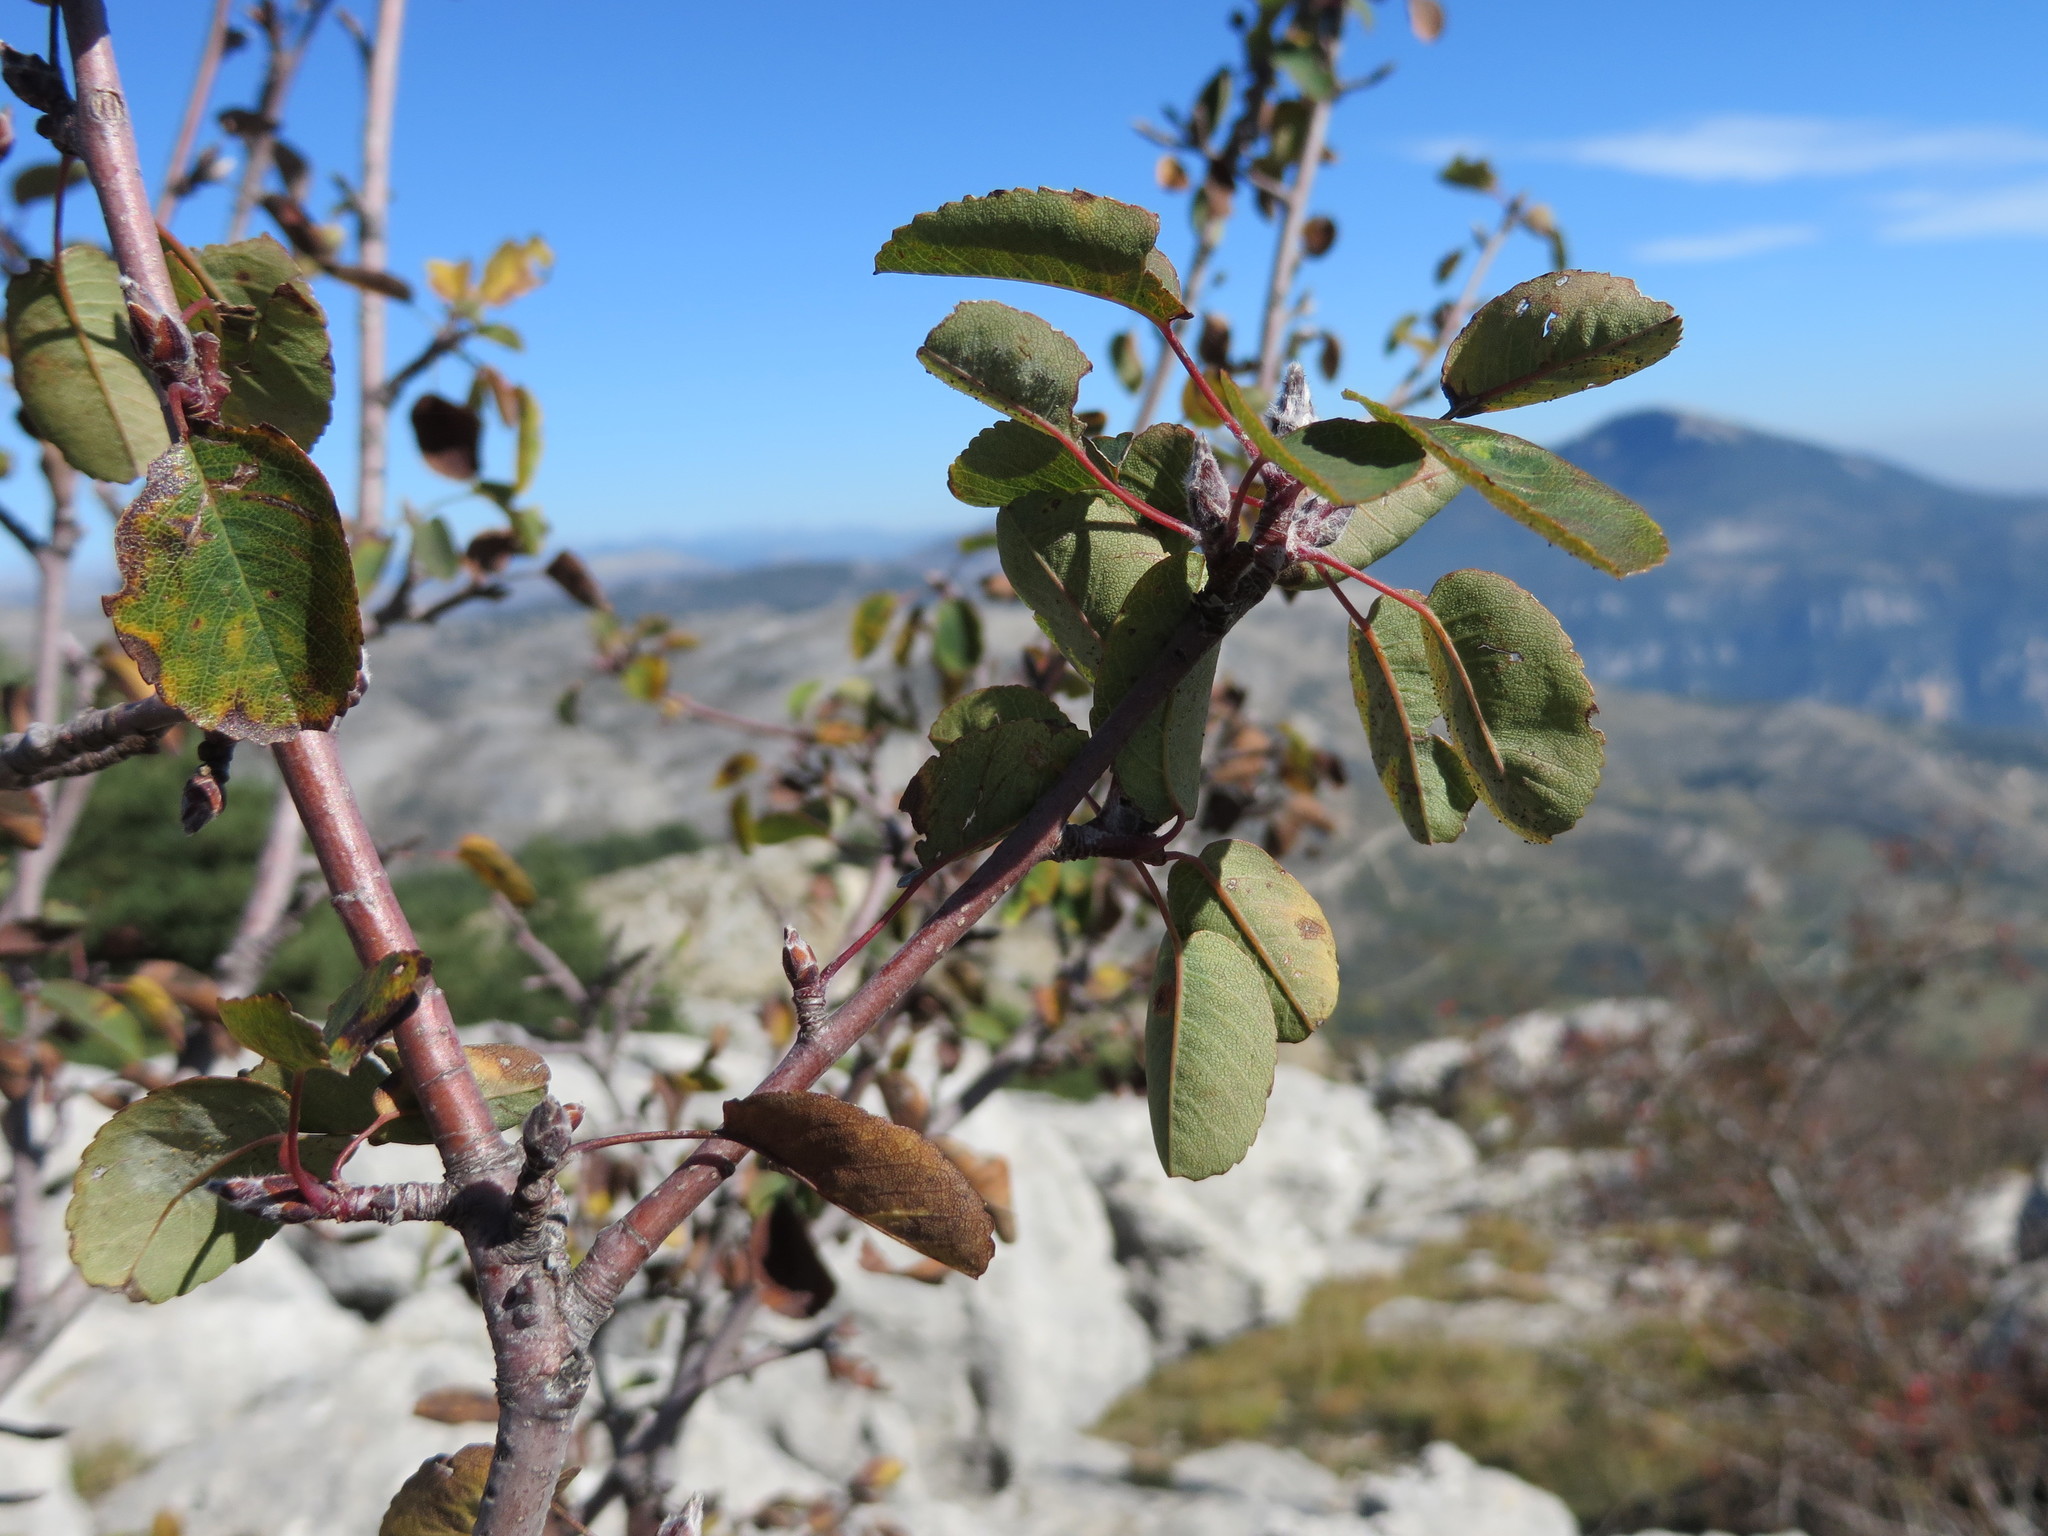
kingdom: Plantae
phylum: Tracheophyta
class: Magnoliopsida
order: Rosales
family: Rosaceae
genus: Amelanchier
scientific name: Amelanchier ovalis
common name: Serviceberry
